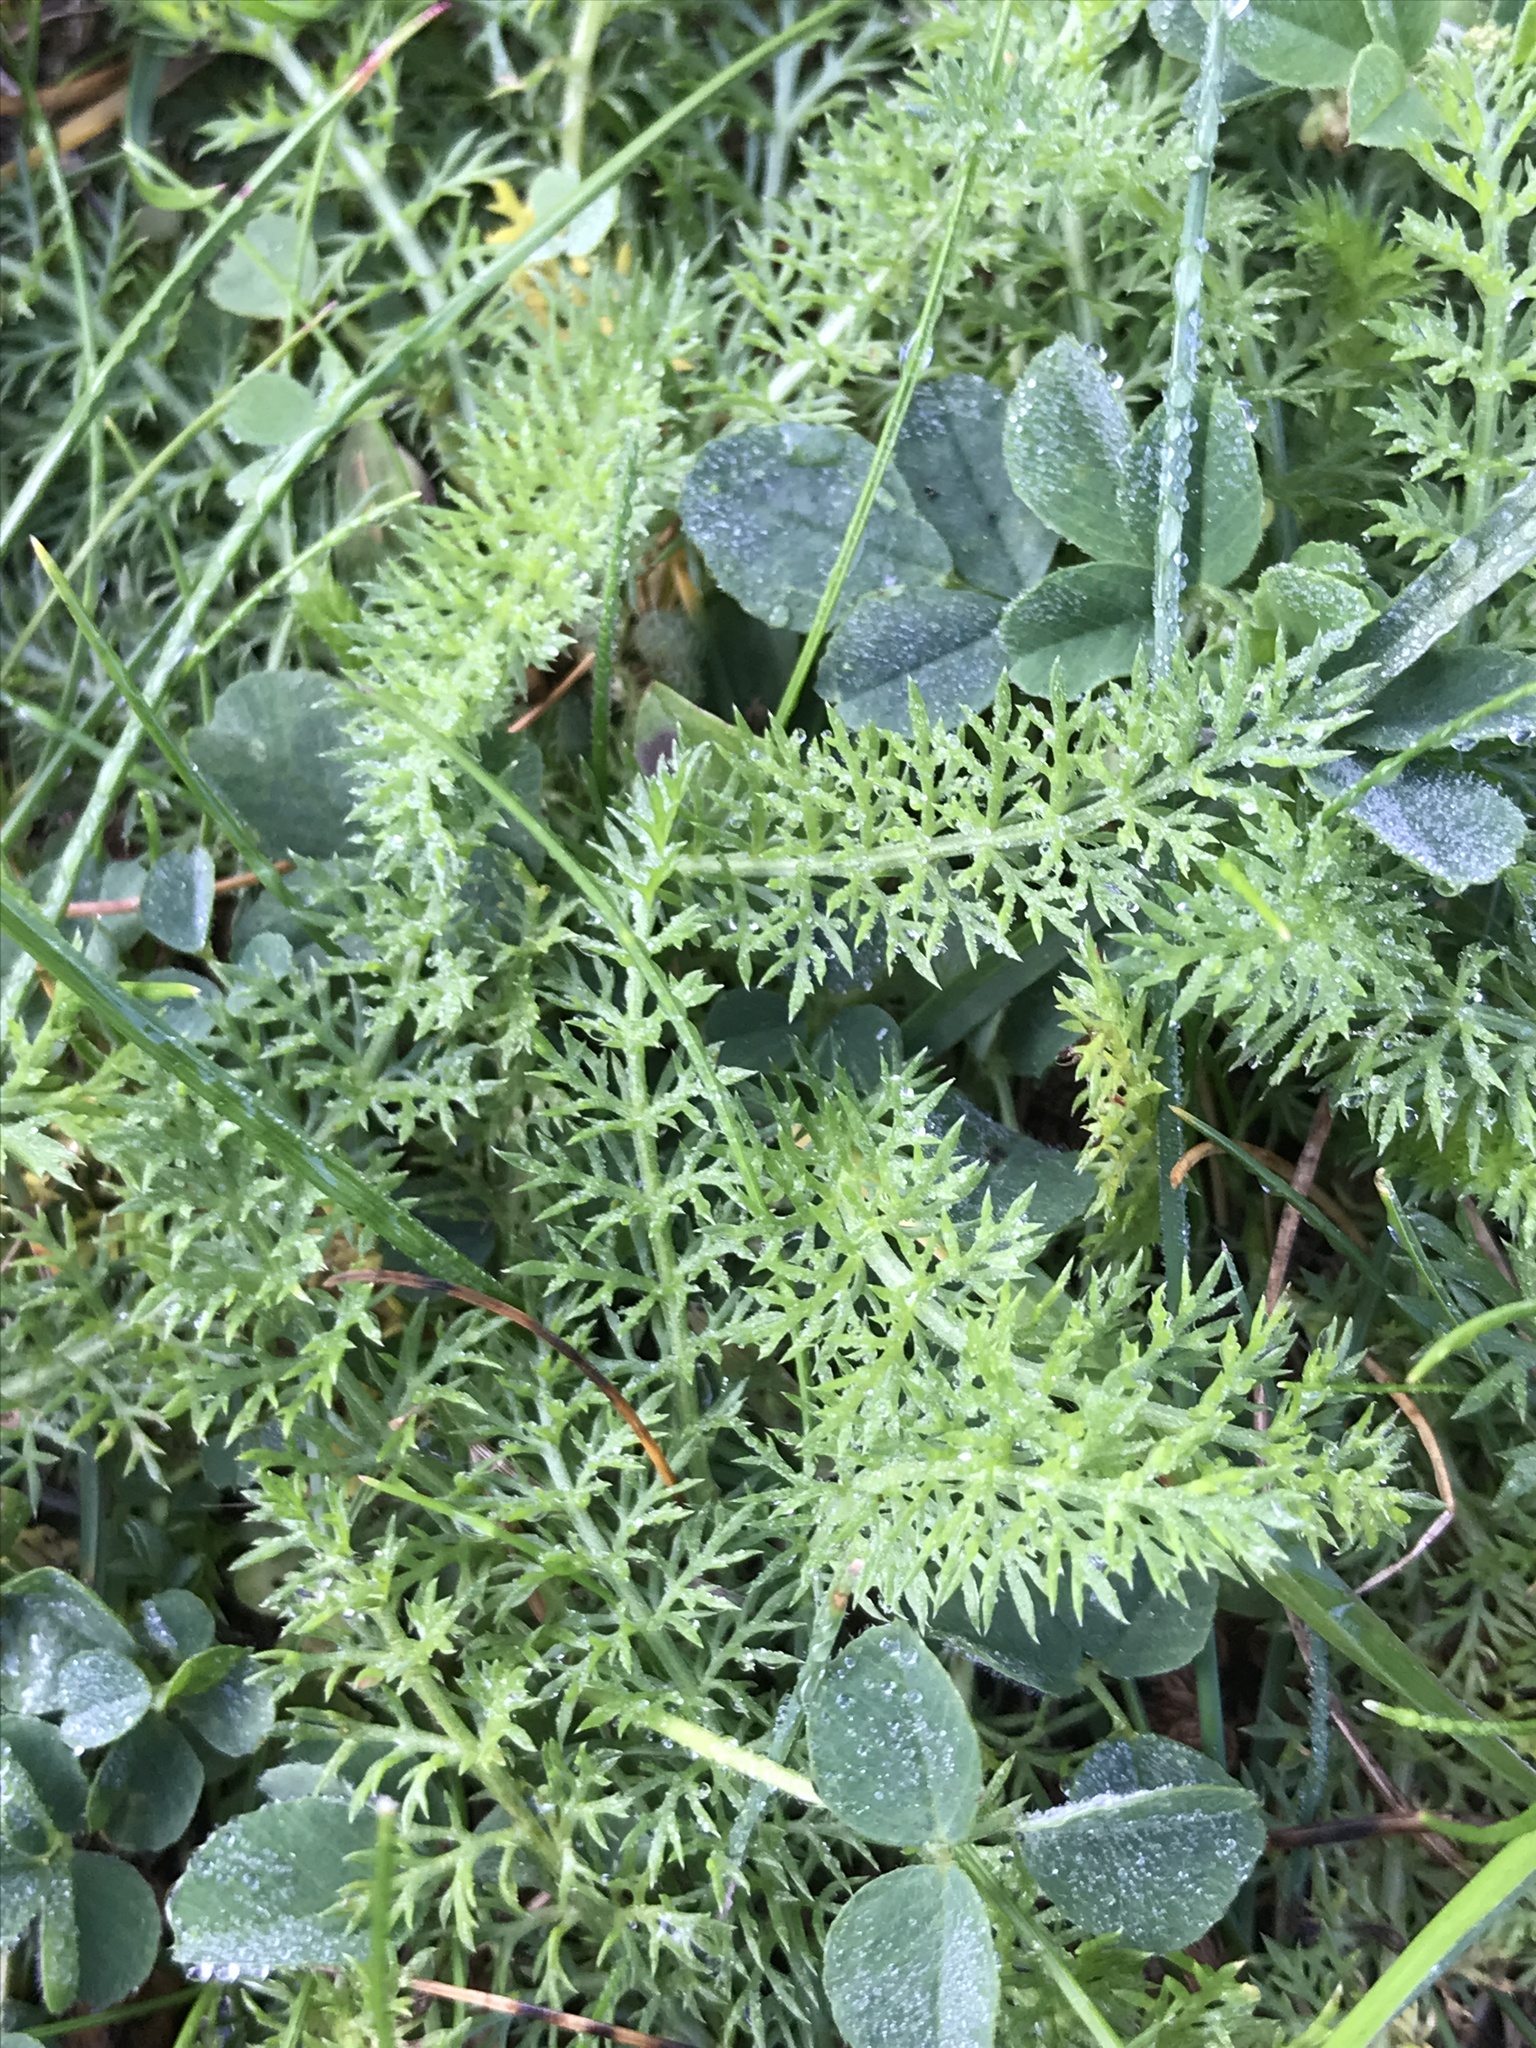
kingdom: Plantae
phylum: Tracheophyta
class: Magnoliopsida
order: Asterales
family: Asteraceae
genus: Achillea
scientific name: Achillea millefolium
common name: Yarrow
